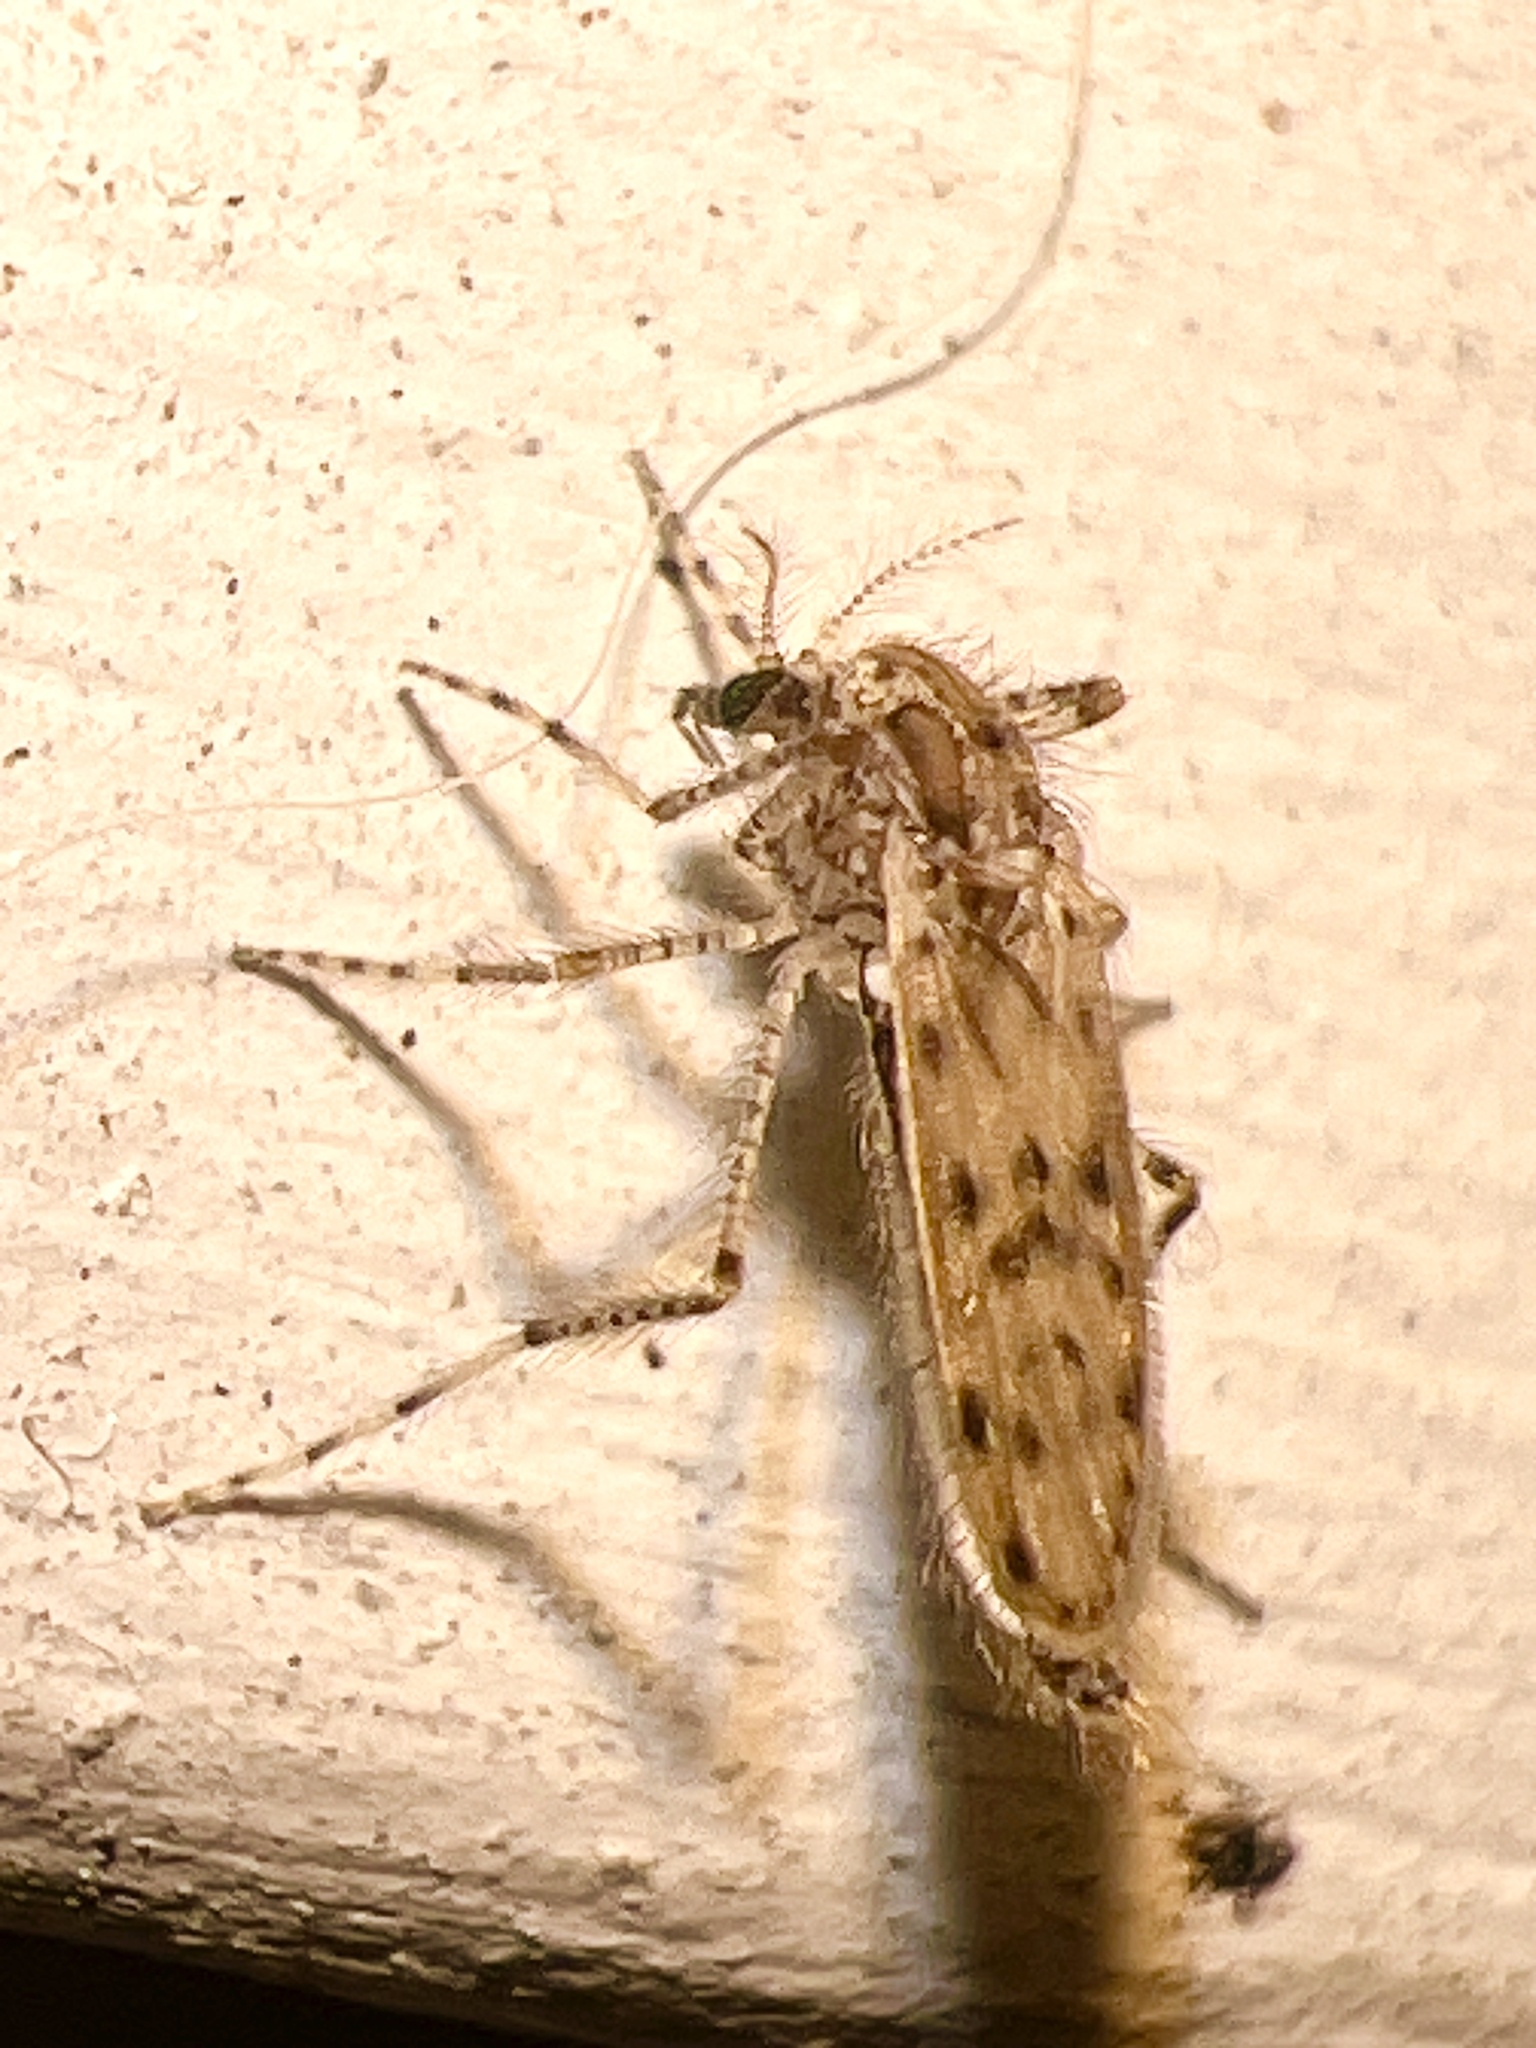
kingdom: Animalia
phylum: Arthropoda
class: Insecta
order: Diptera
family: Chaoboridae
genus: Chaoborus
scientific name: Chaoborus punctipennis
